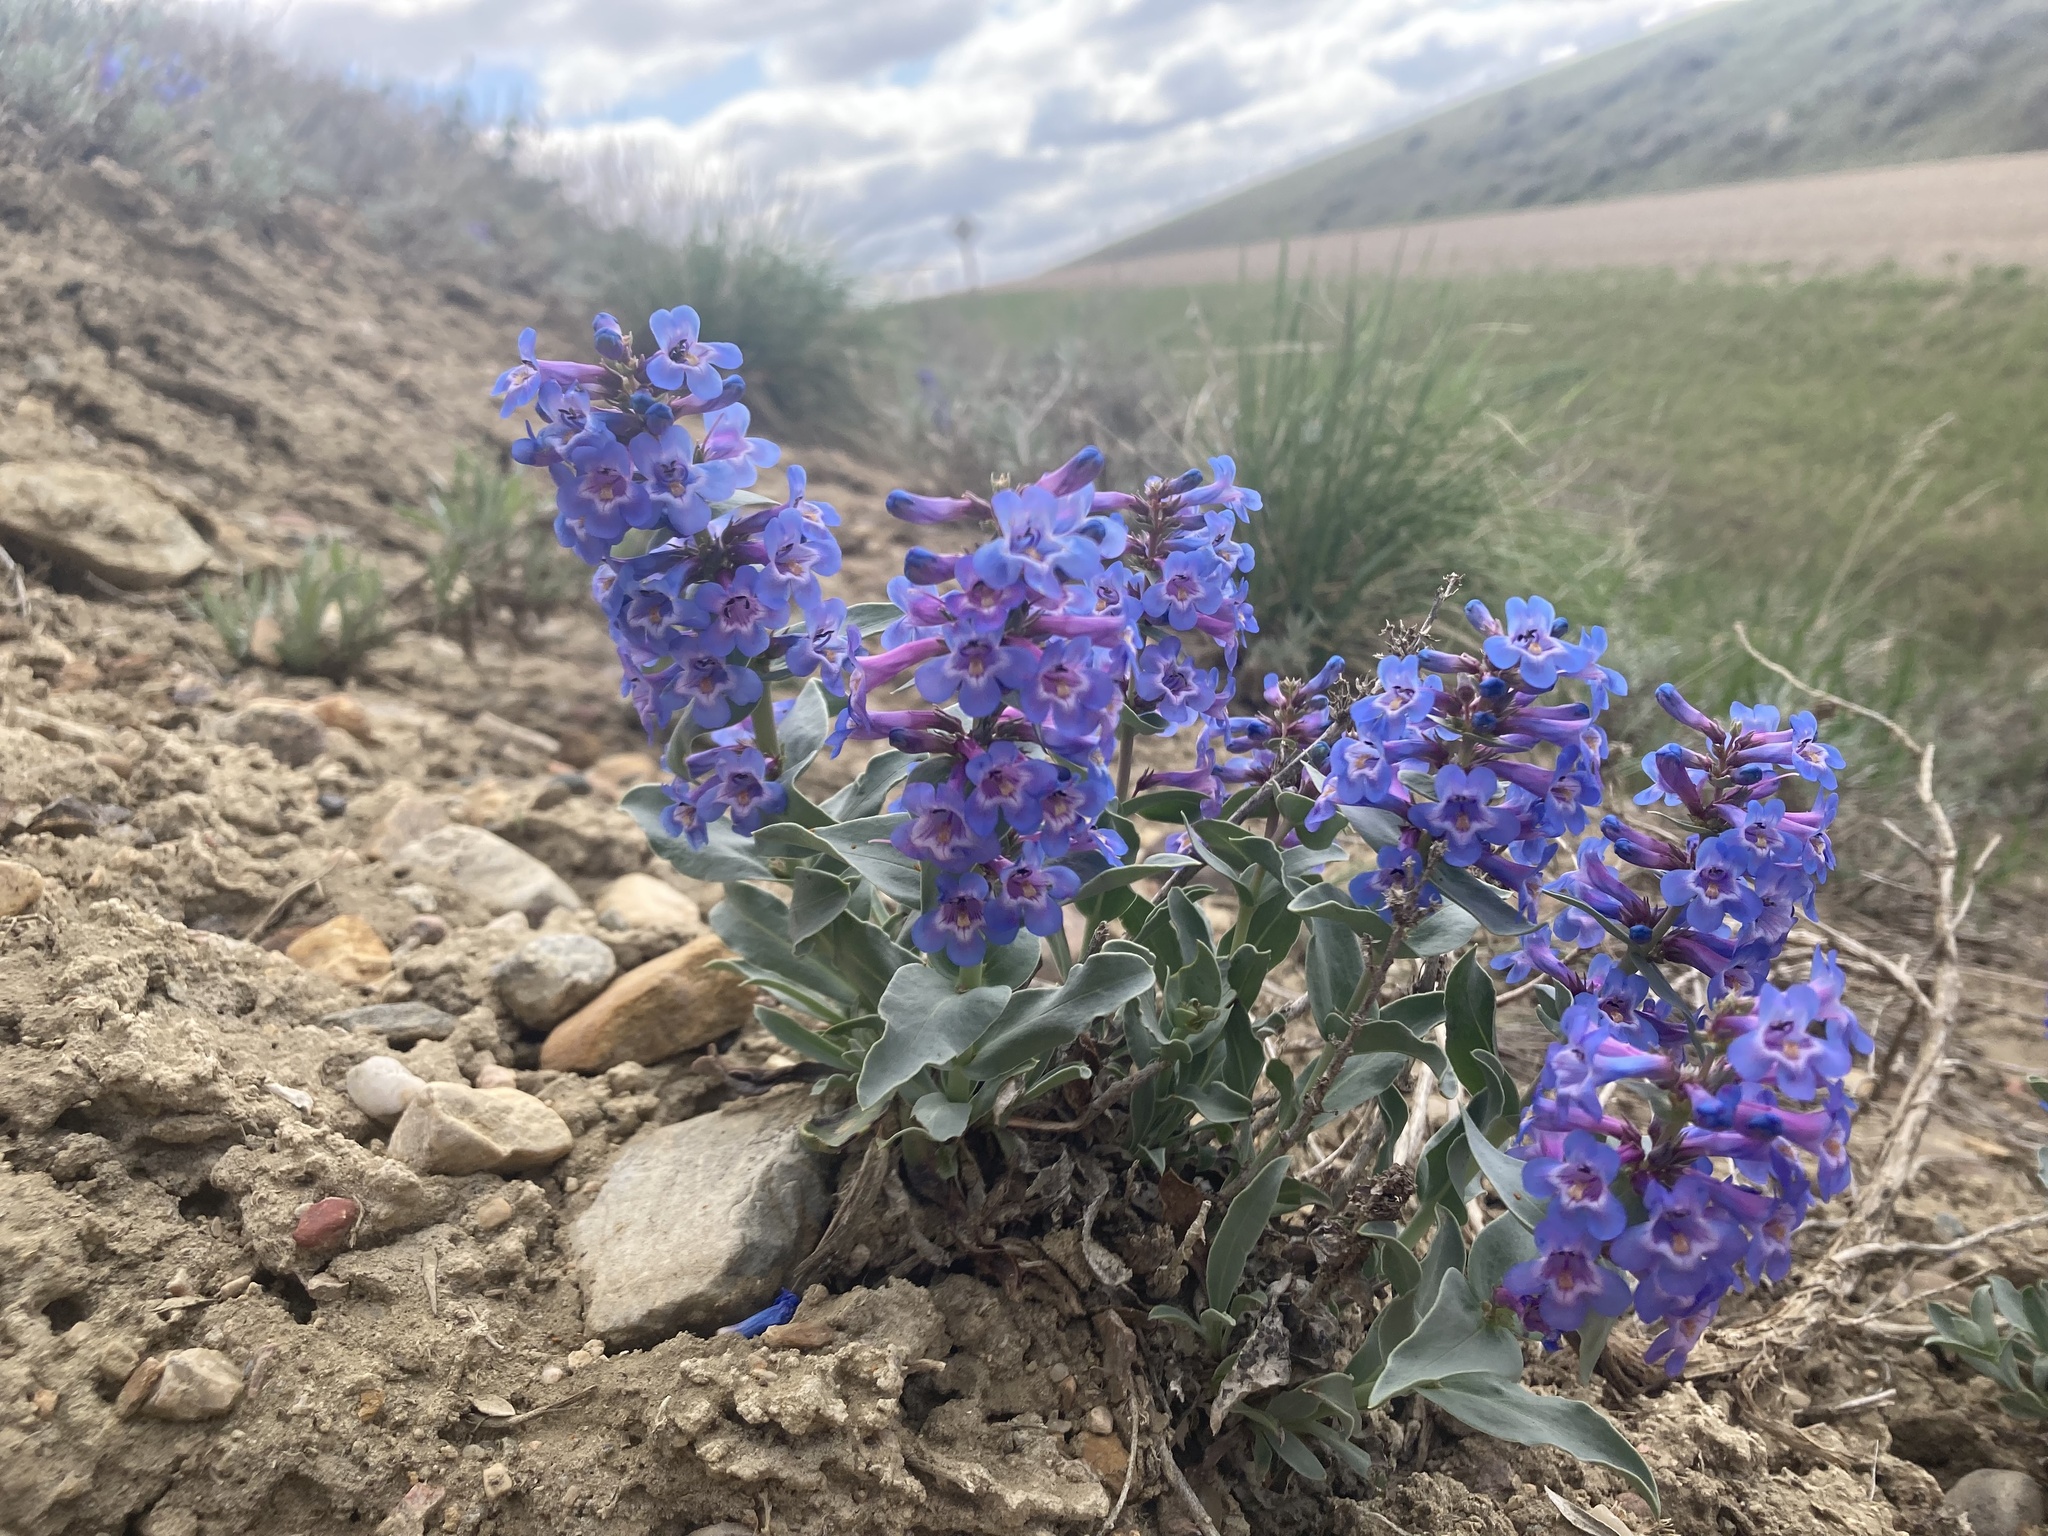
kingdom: Plantae
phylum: Tracheophyta
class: Magnoliopsida
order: Lamiales
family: Plantaginaceae
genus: Penstemon
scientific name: Penstemon nitidus
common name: Shining penstemon
